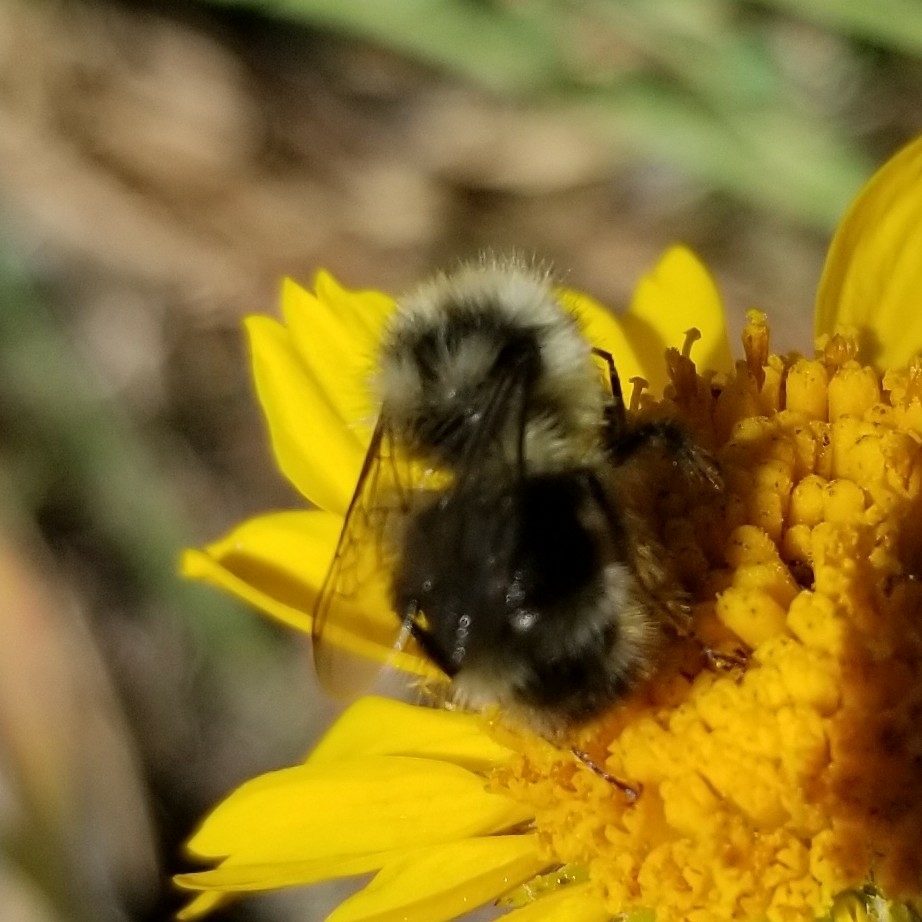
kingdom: Animalia
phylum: Arthropoda
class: Insecta
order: Hymenoptera
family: Apidae
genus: Bombus
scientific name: Bombus vancouverensis
